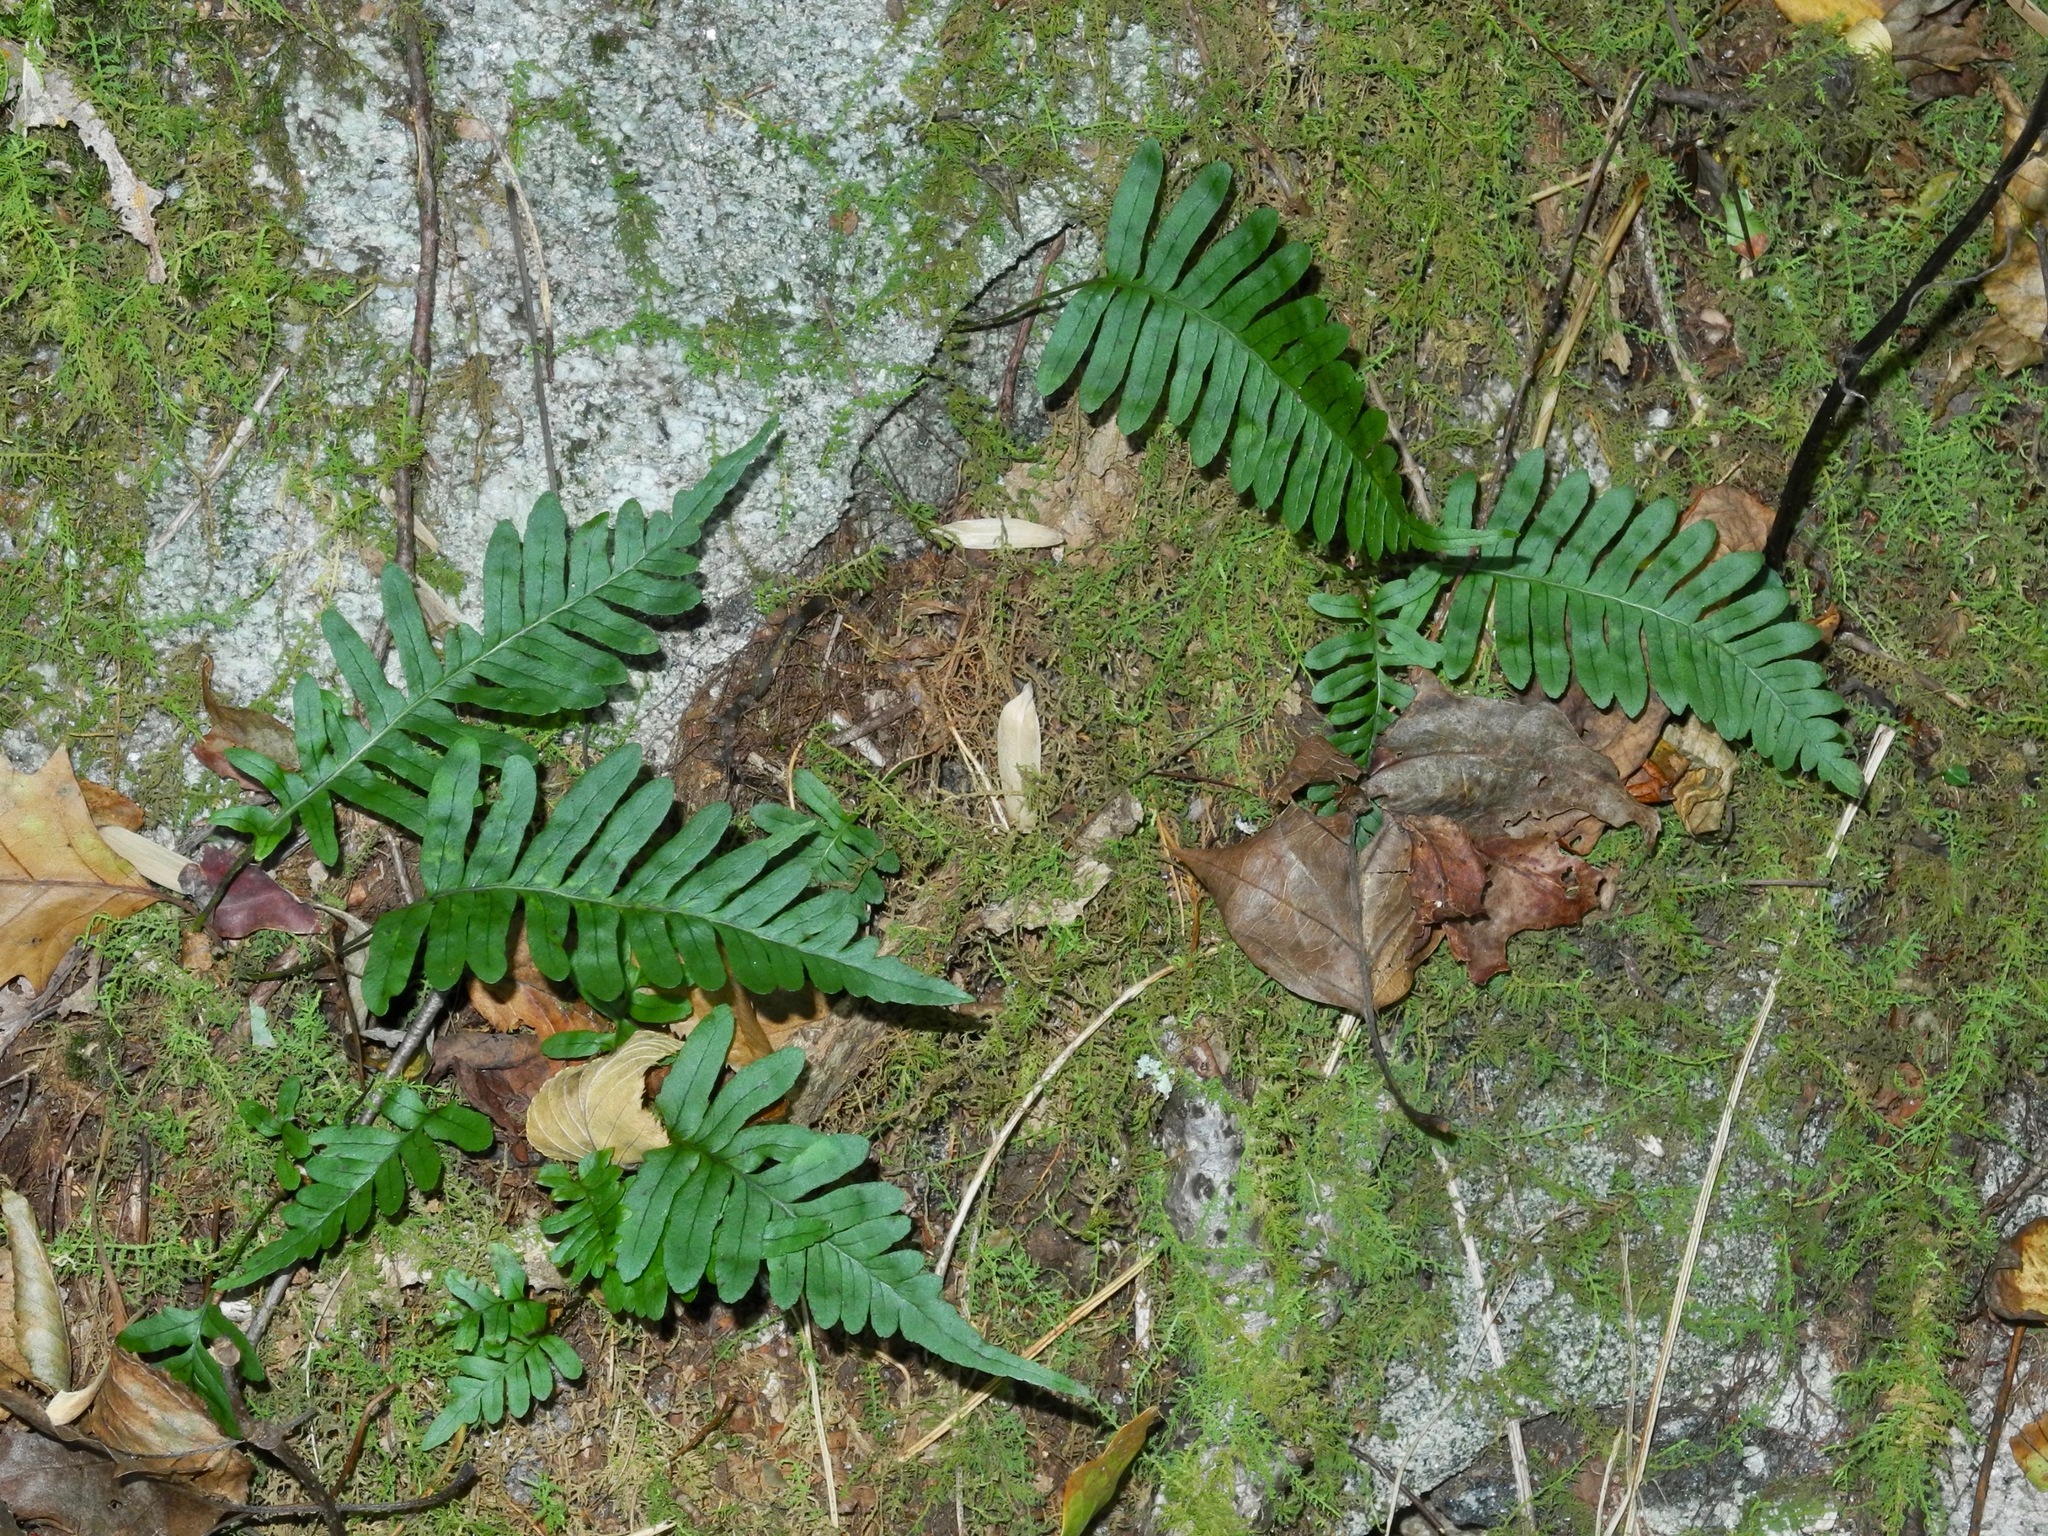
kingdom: Plantae
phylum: Tracheophyta
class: Polypodiopsida
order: Polypodiales
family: Polypodiaceae
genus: Polypodium
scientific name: Polypodium virginianum
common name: American wall fern
